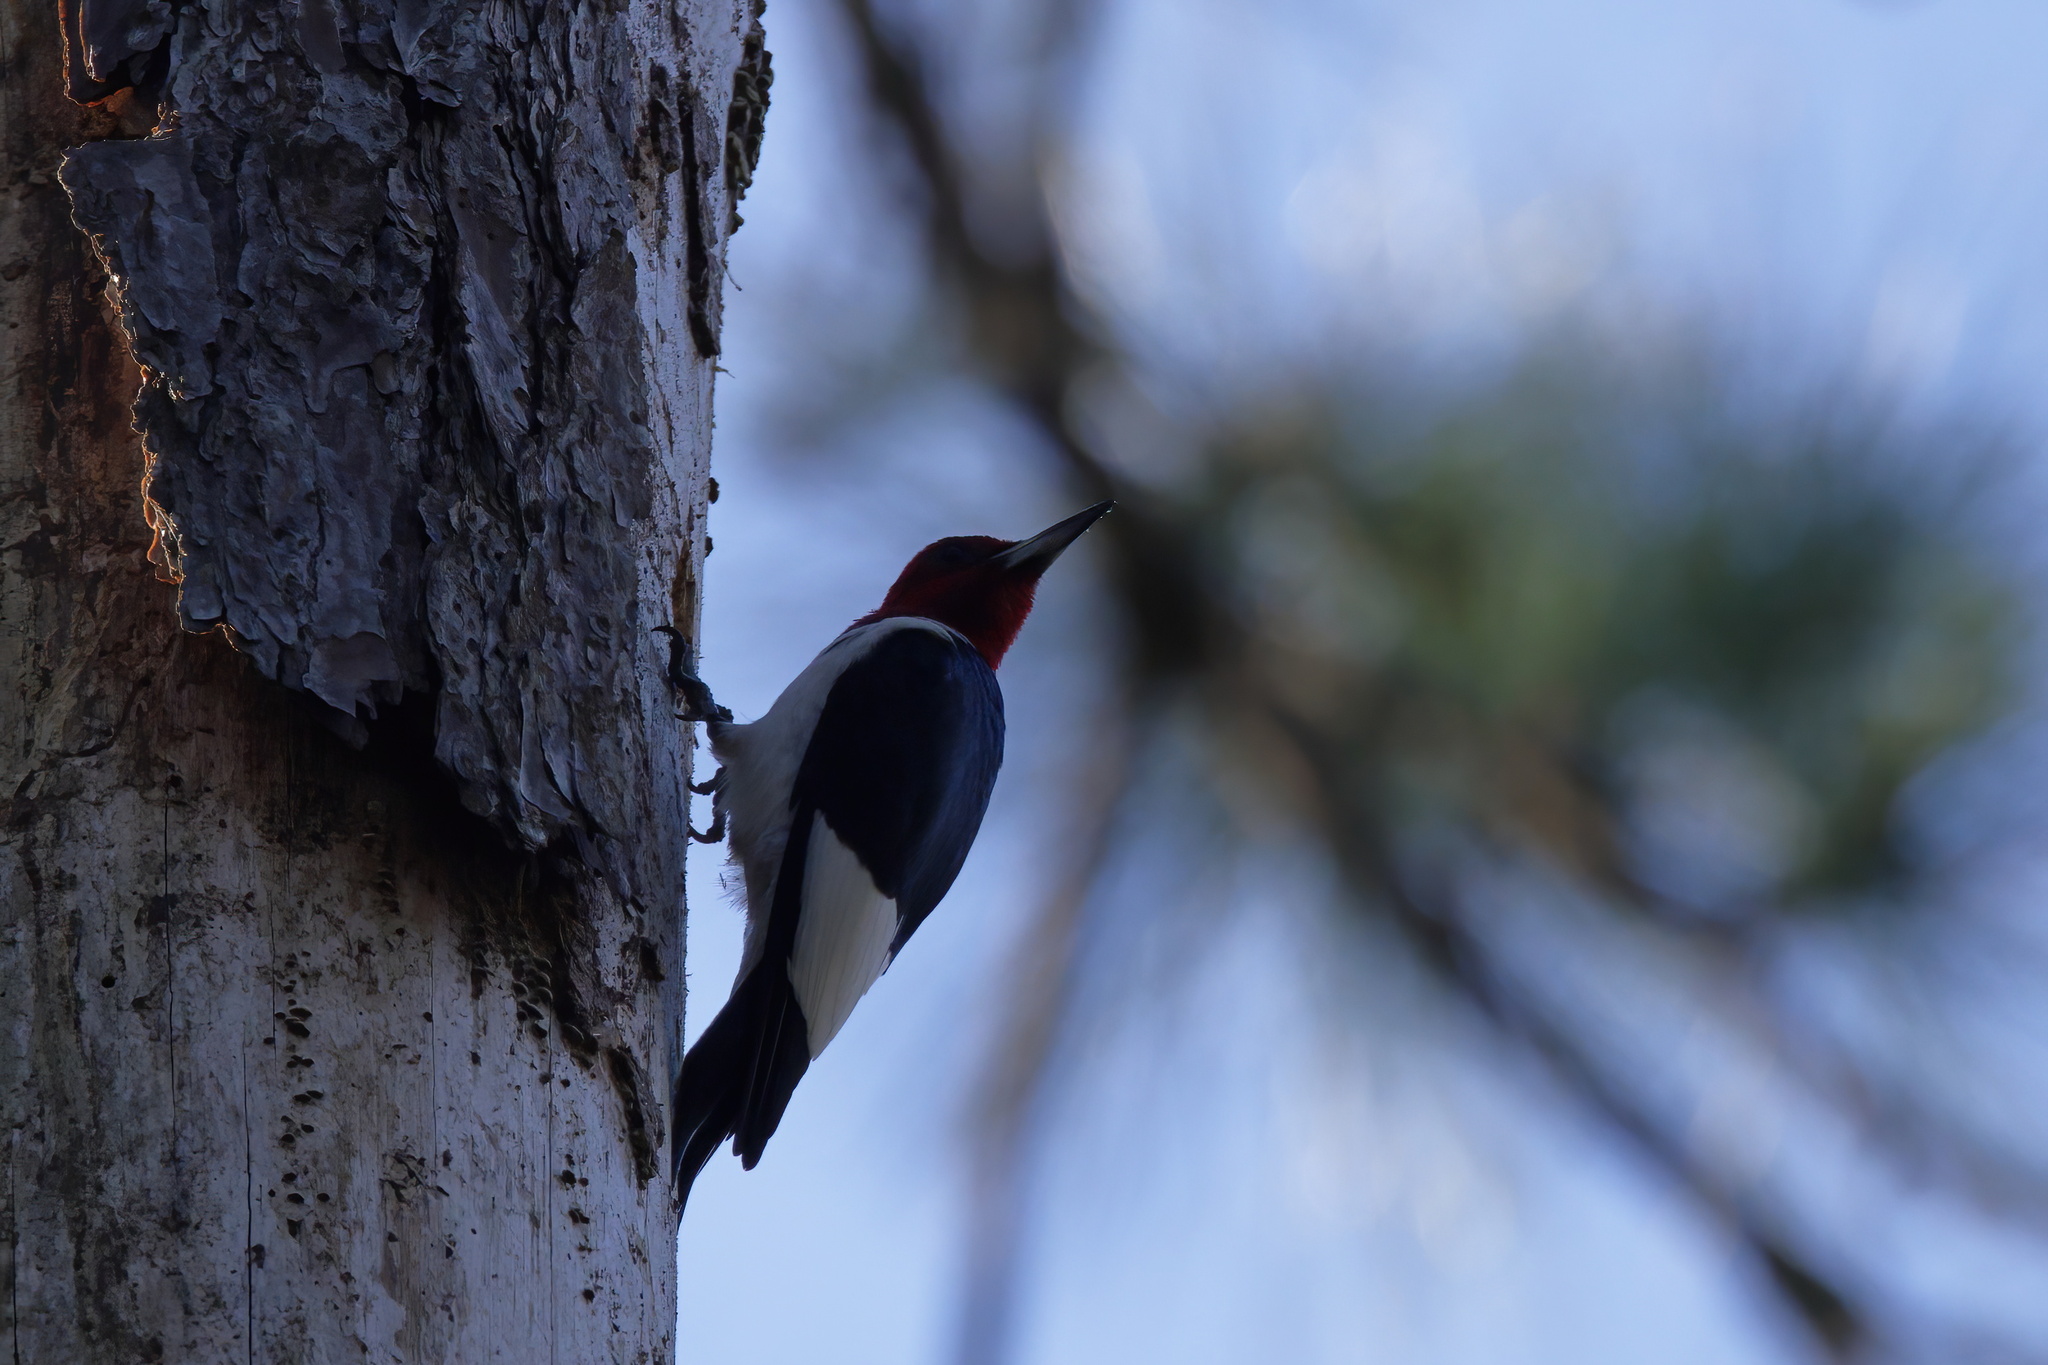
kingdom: Animalia
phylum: Chordata
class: Aves
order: Piciformes
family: Picidae
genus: Melanerpes
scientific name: Melanerpes erythrocephalus
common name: Red-headed woodpecker
